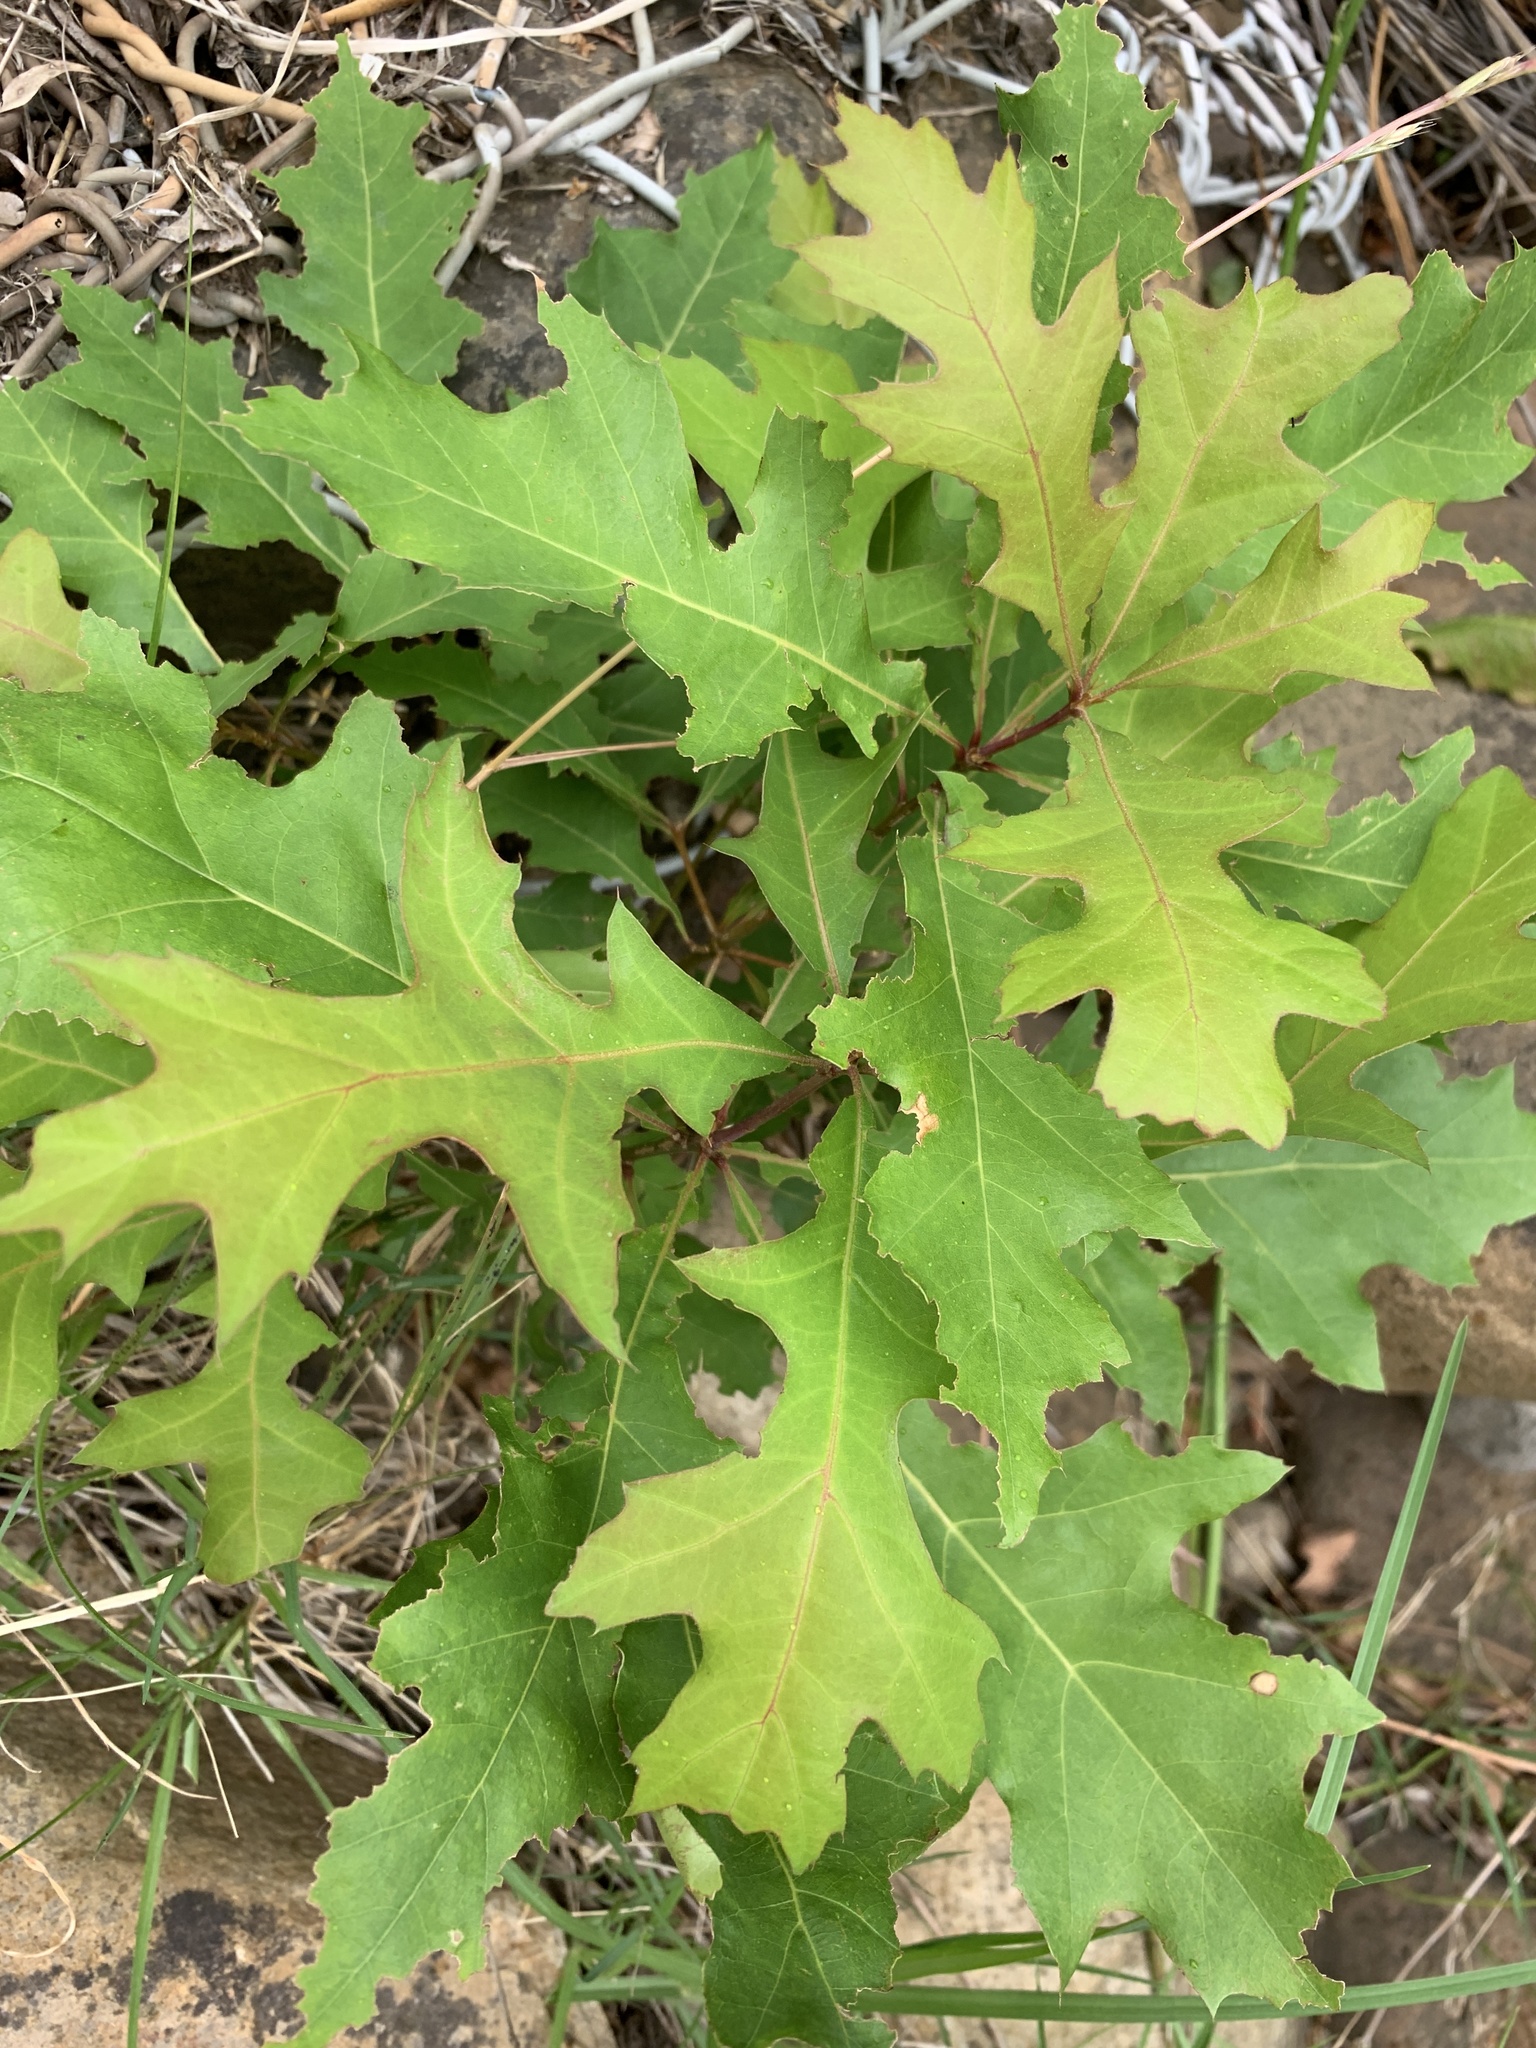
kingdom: Plantae
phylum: Tracheophyta
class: Magnoliopsida
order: Fagales
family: Fagaceae
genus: Quercus
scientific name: Quercus palustris
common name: Pin oak
